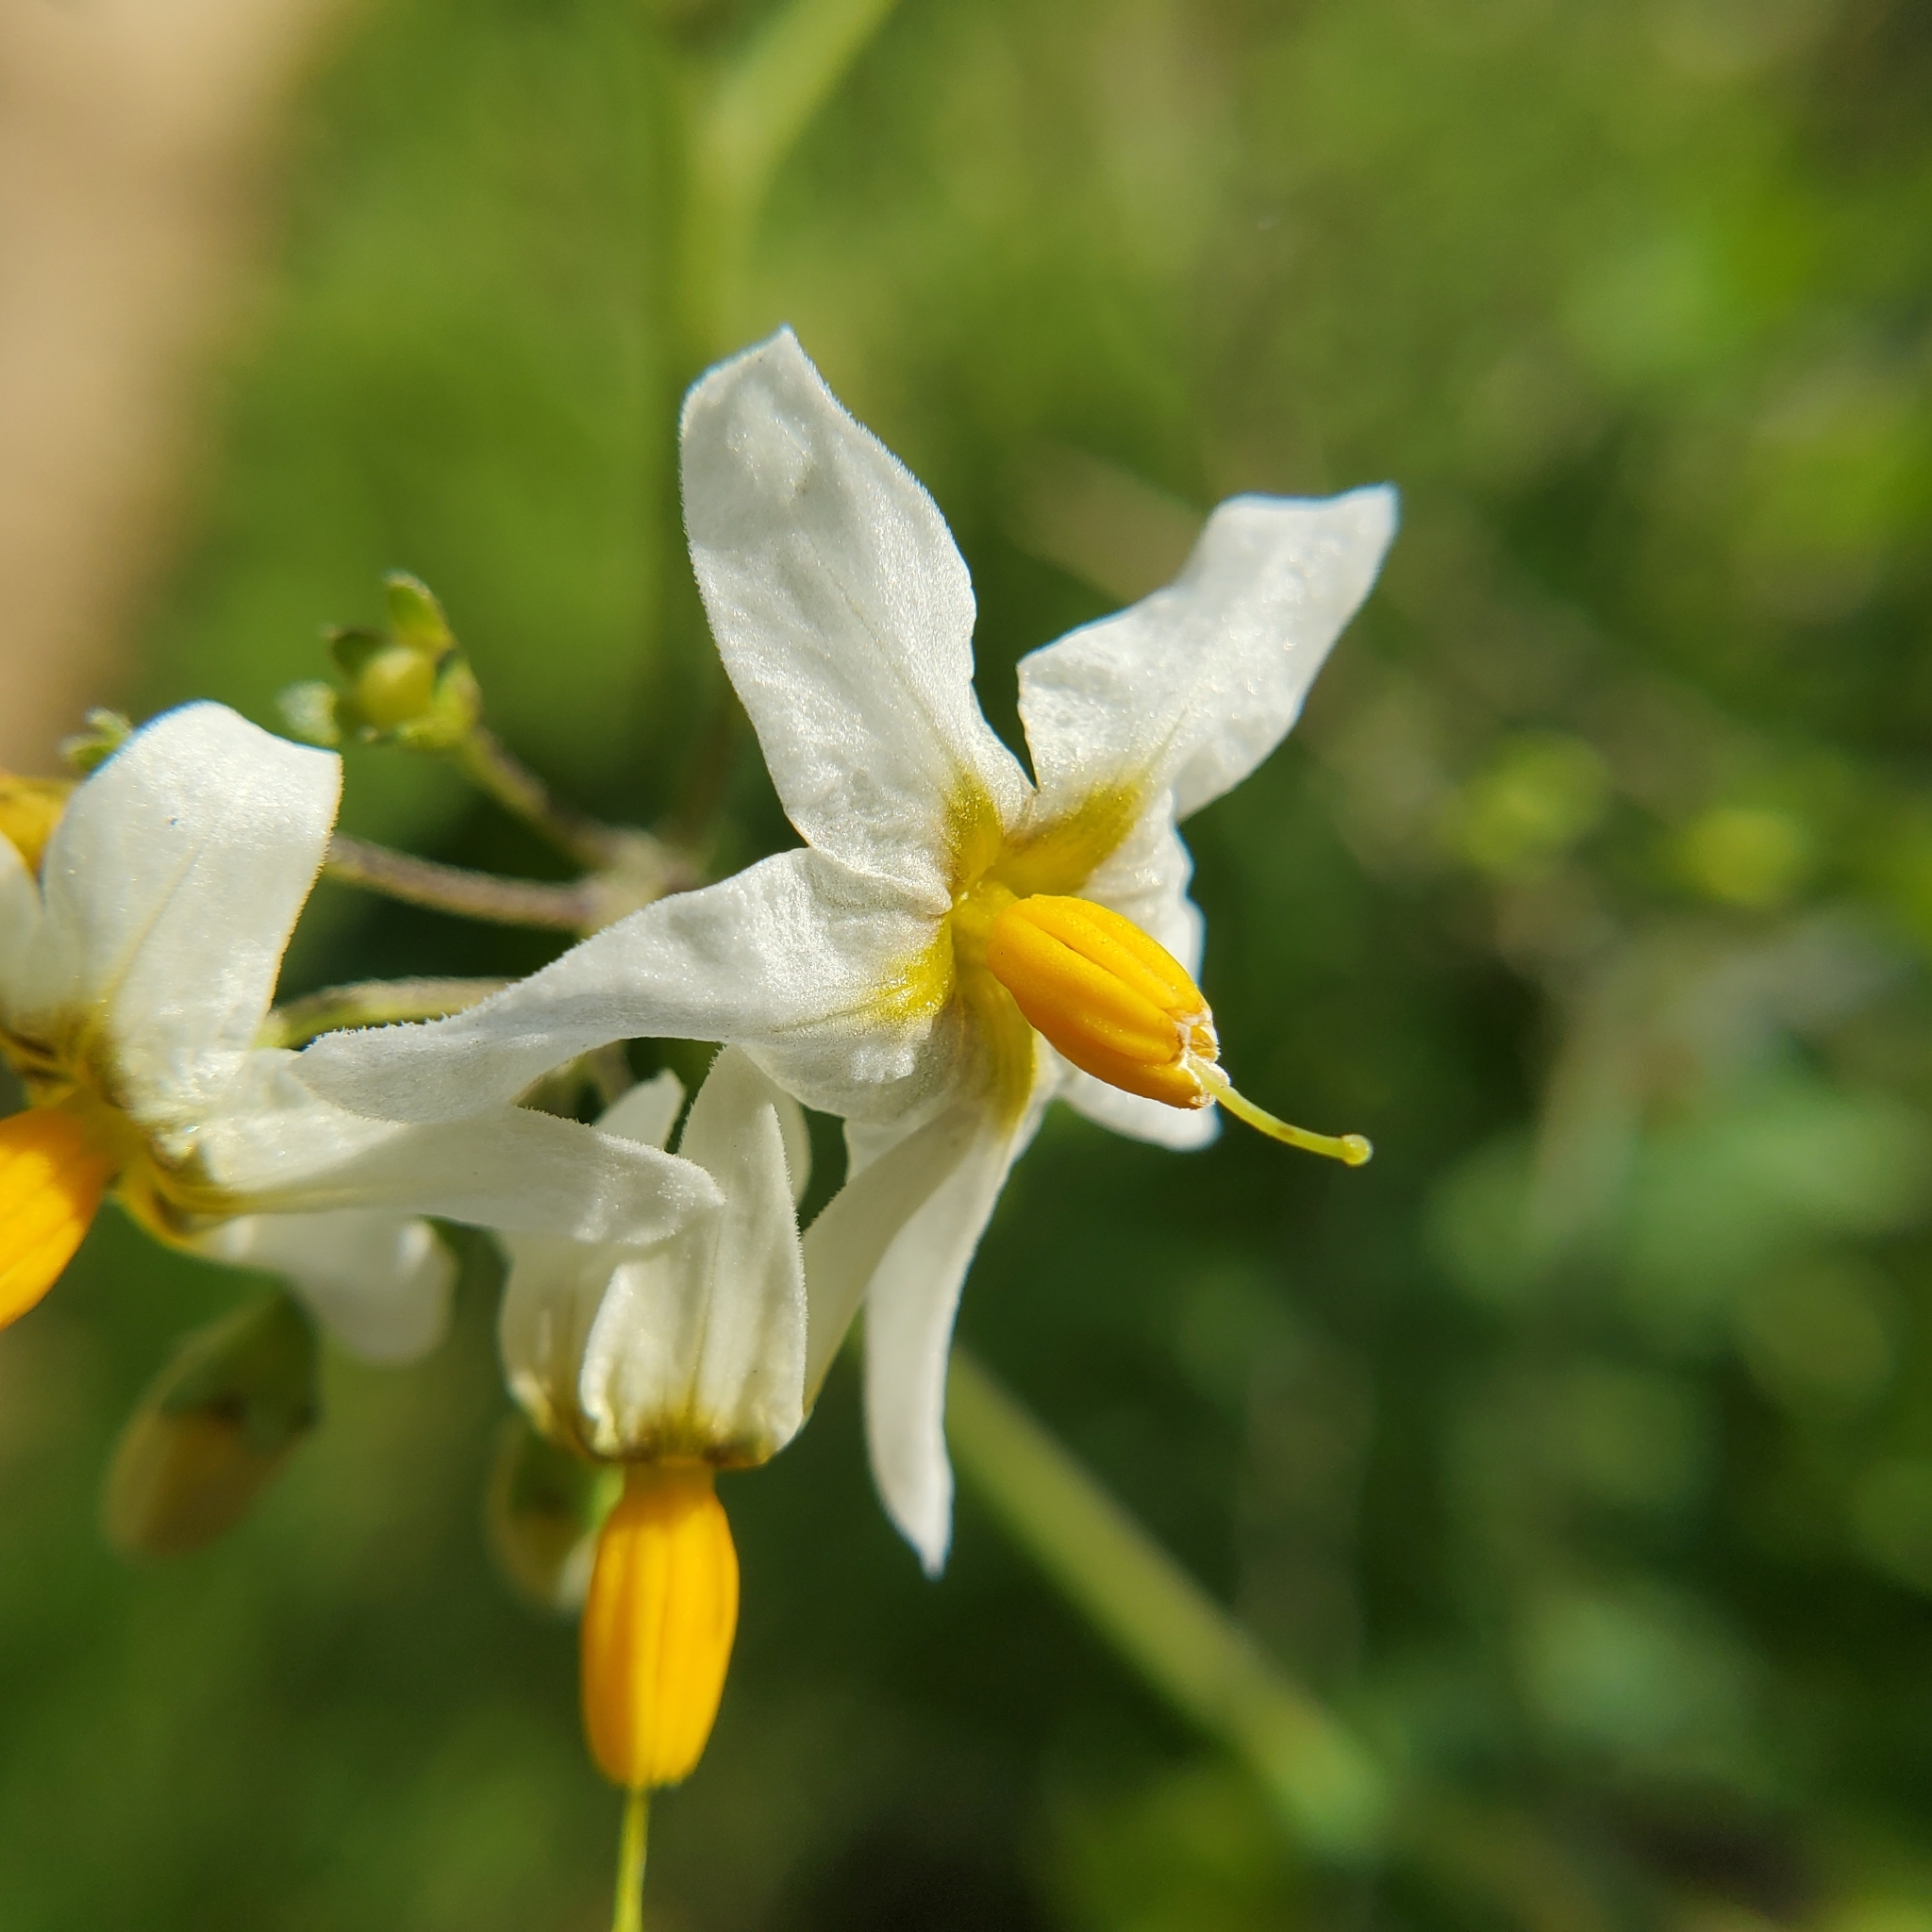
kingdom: Plantae
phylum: Tracheophyta
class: Magnoliopsida
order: Solanales
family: Solanaceae
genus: Solanum
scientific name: Solanum douglasii
